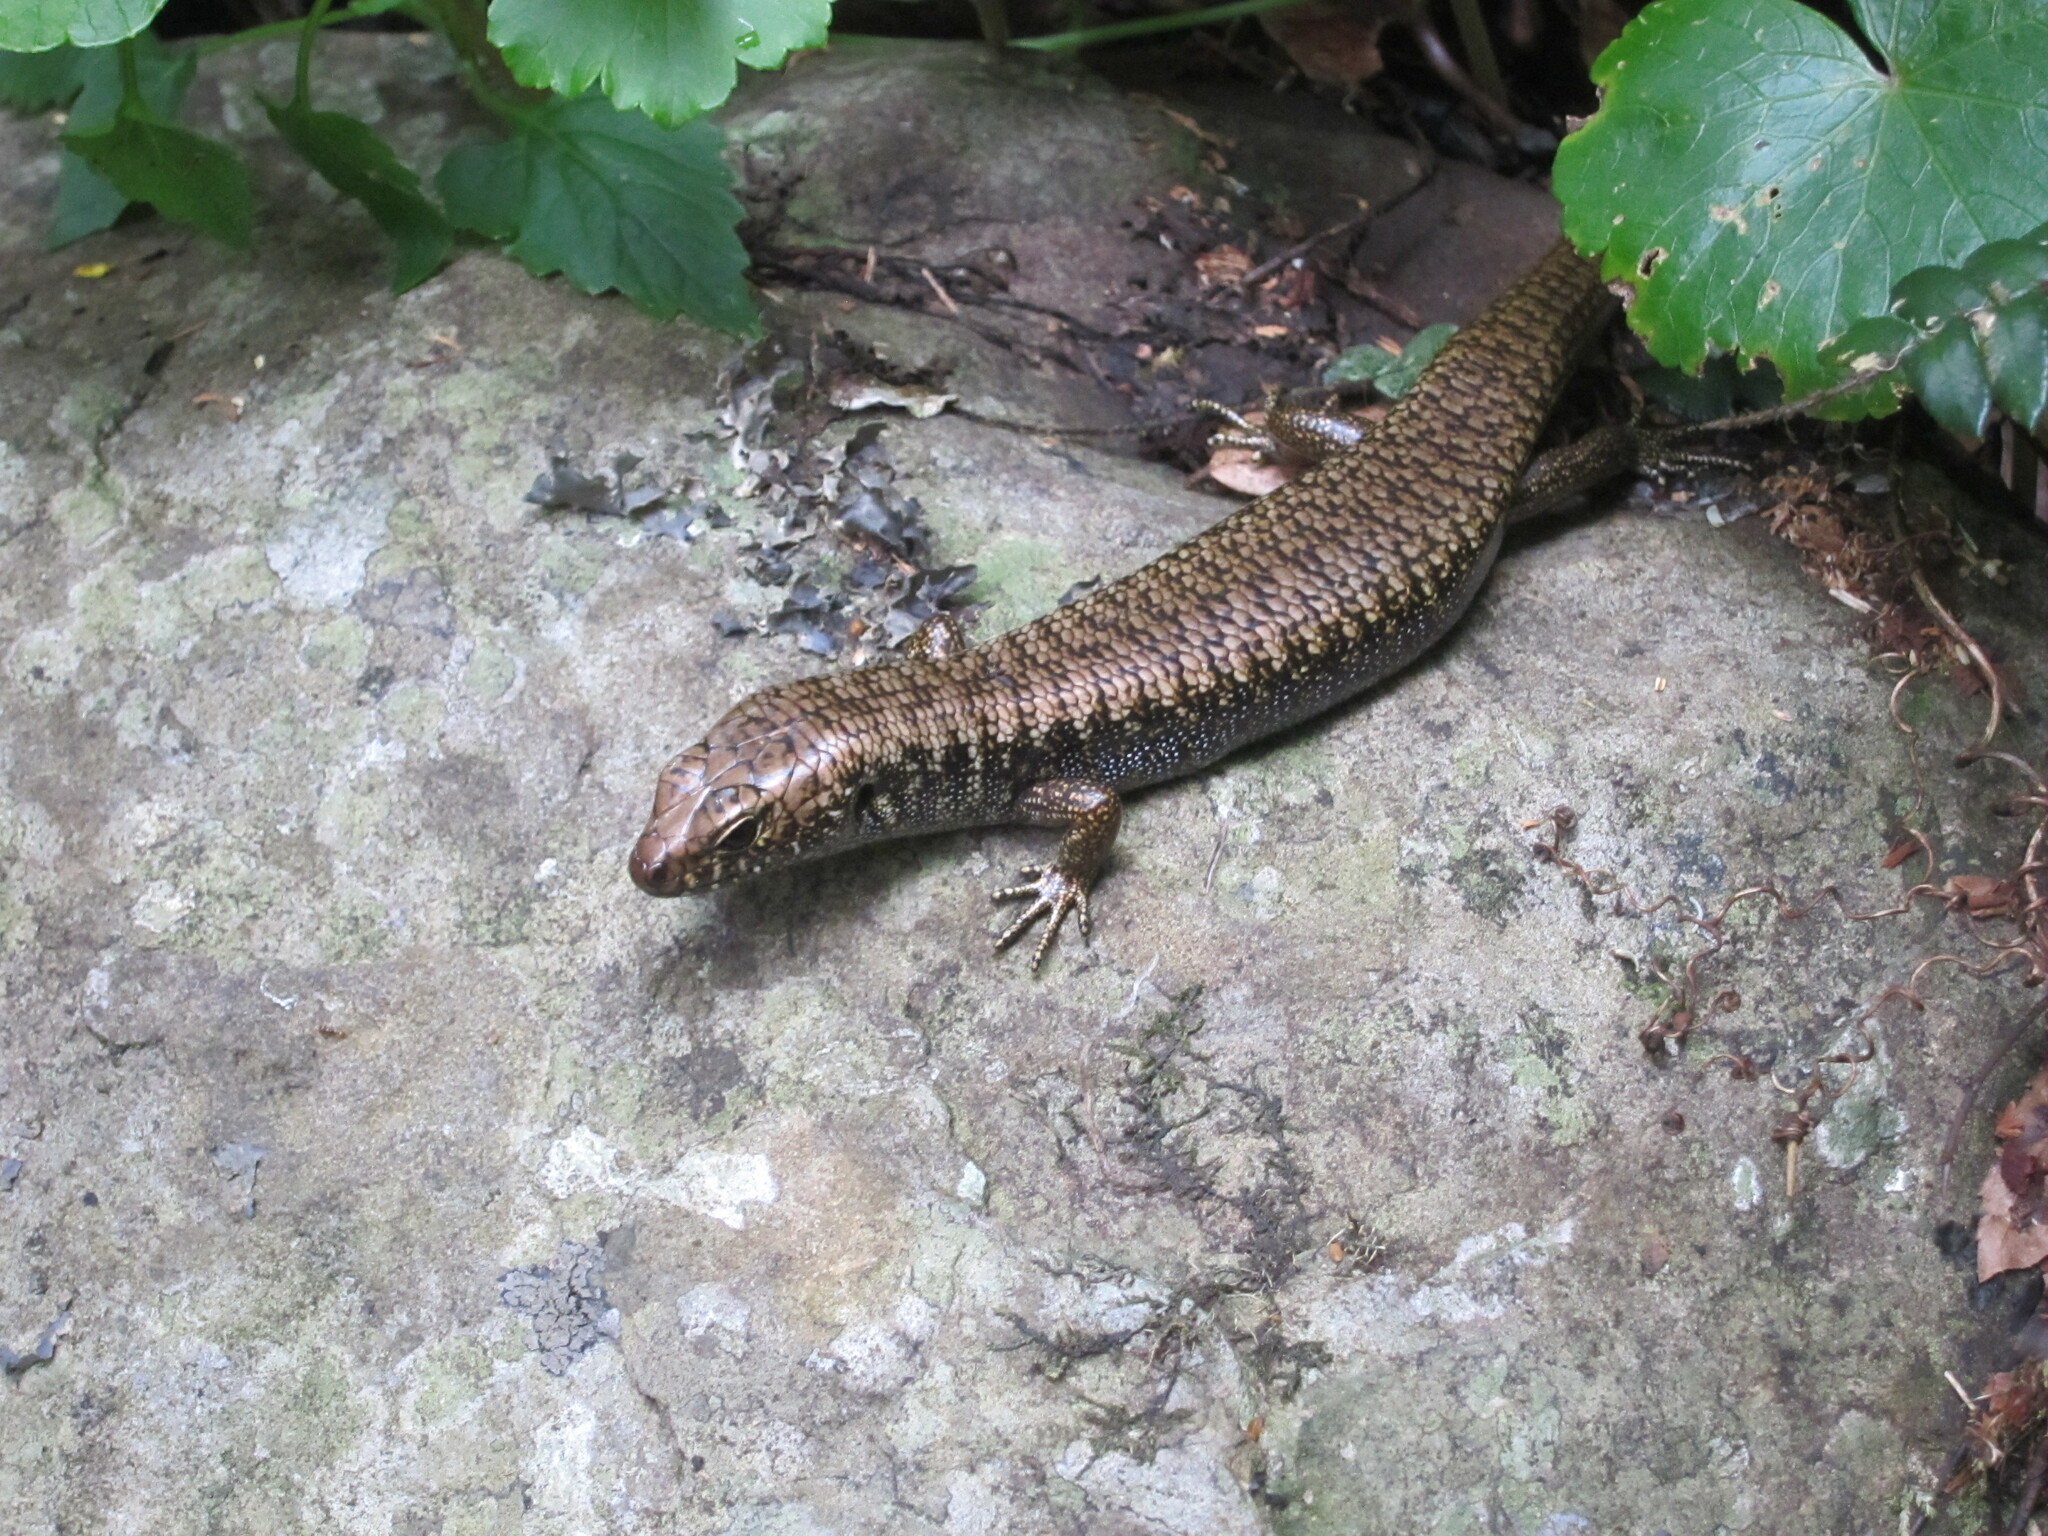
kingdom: Animalia
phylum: Chordata
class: Squamata
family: Scincidae
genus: Silvascincus
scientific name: Silvascincus murrayi
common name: Blue-speckled forest-skink
